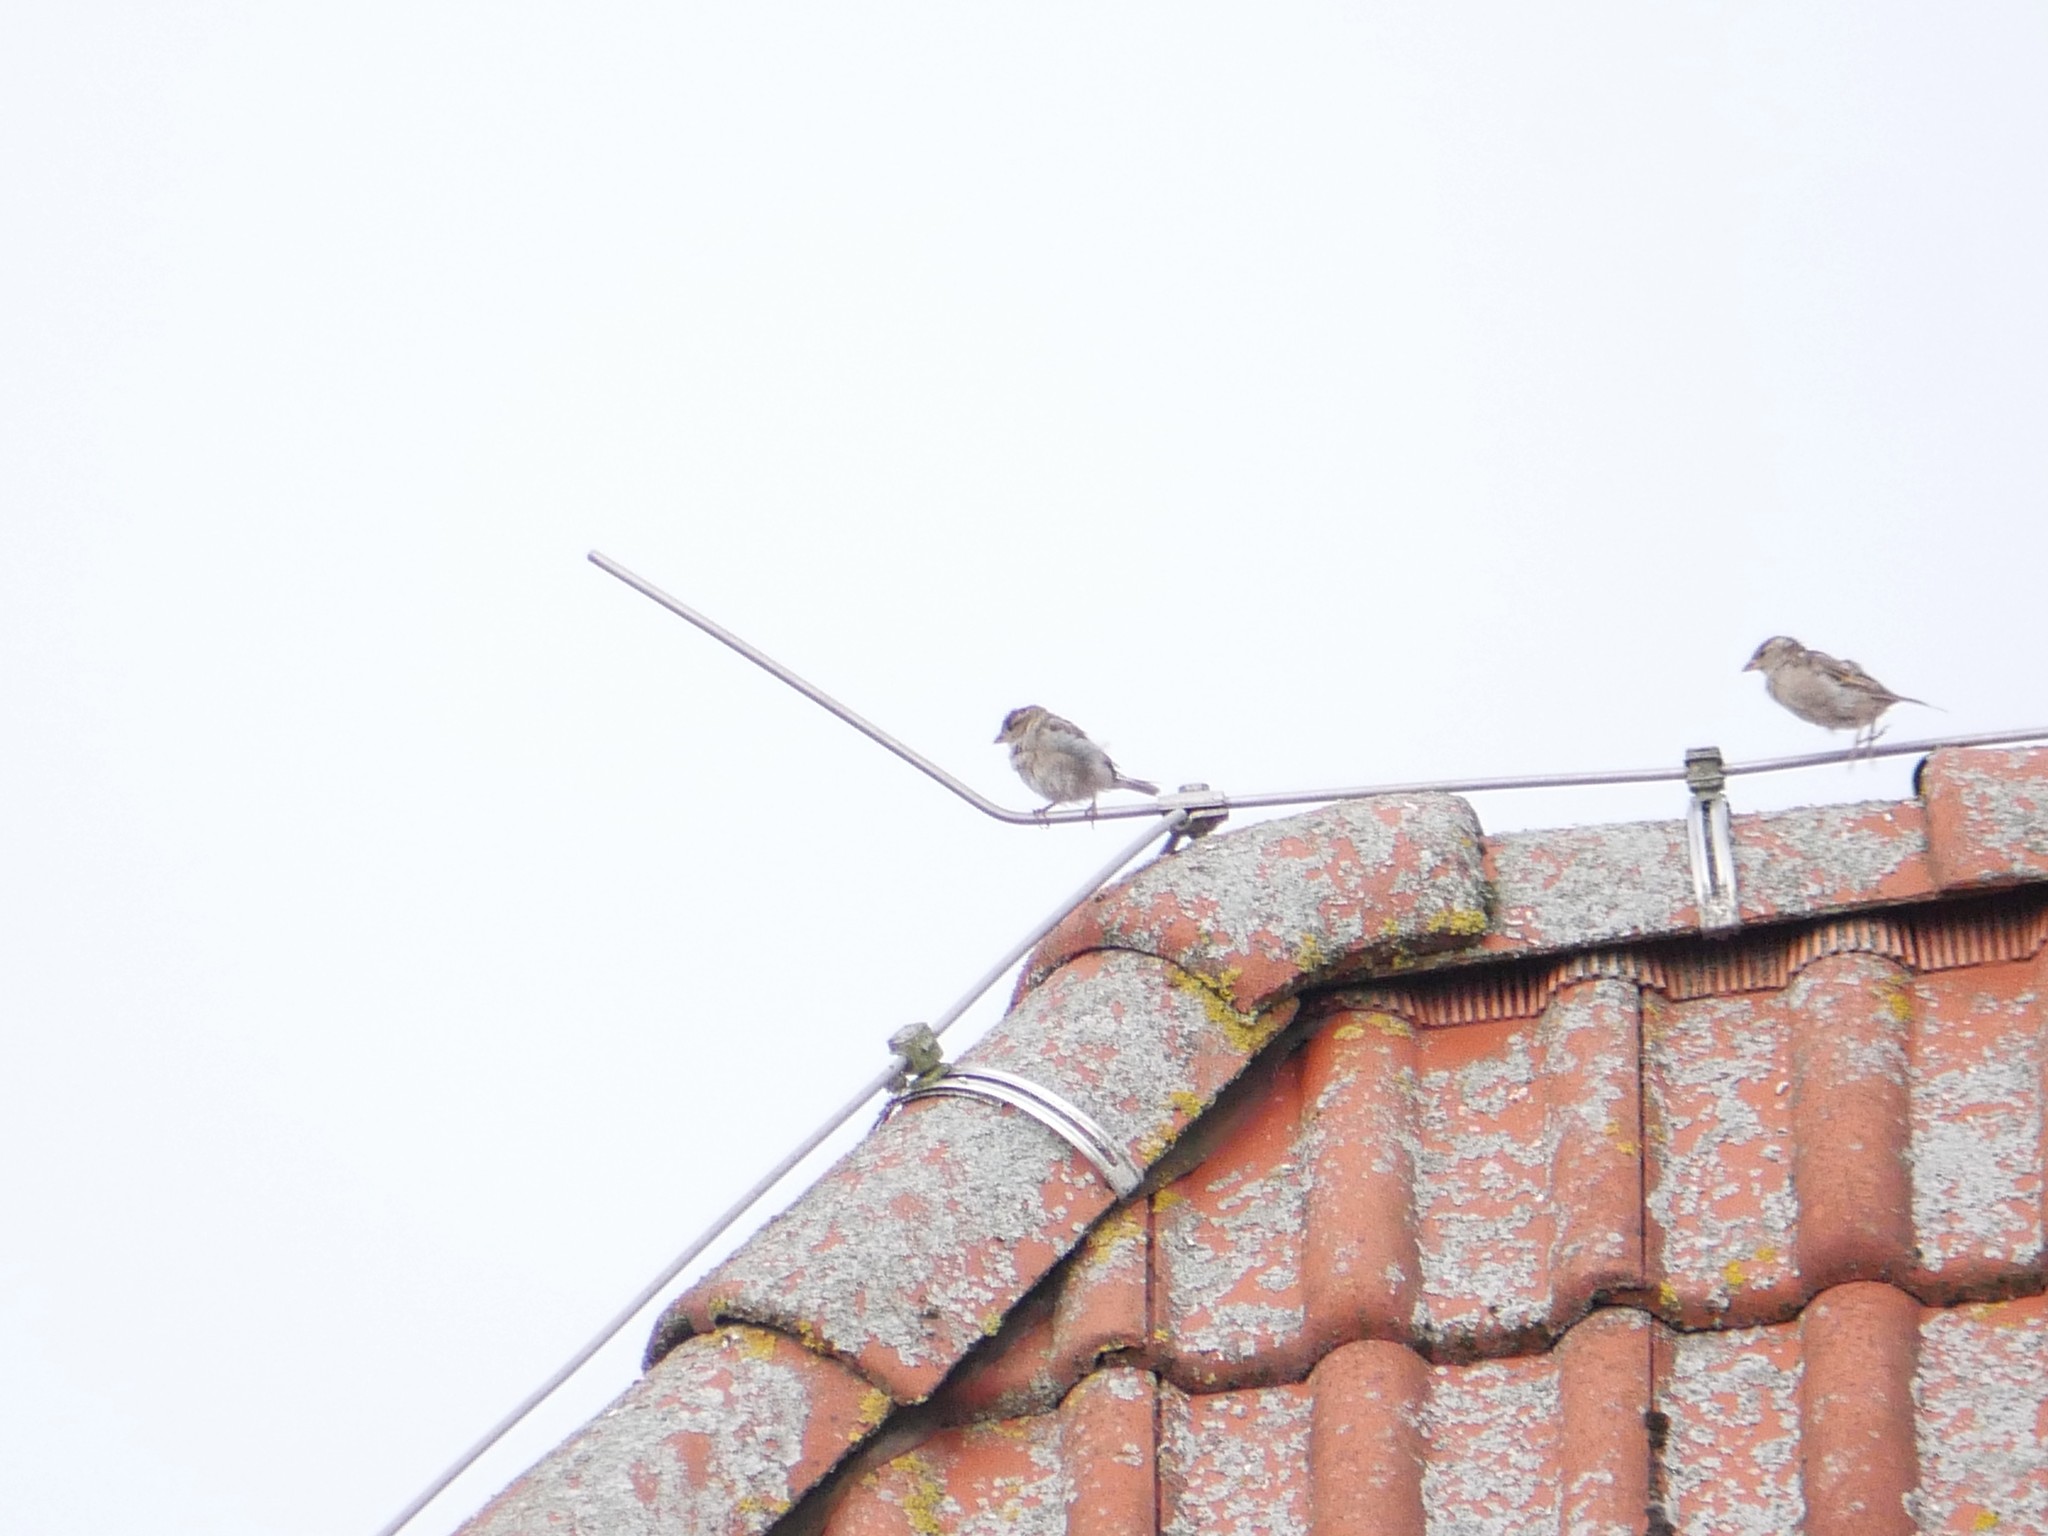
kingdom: Animalia
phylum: Chordata
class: Aves
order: Passeriformes
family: Passeridae
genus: Passer
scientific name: Passer domesticus
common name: House sparrow
